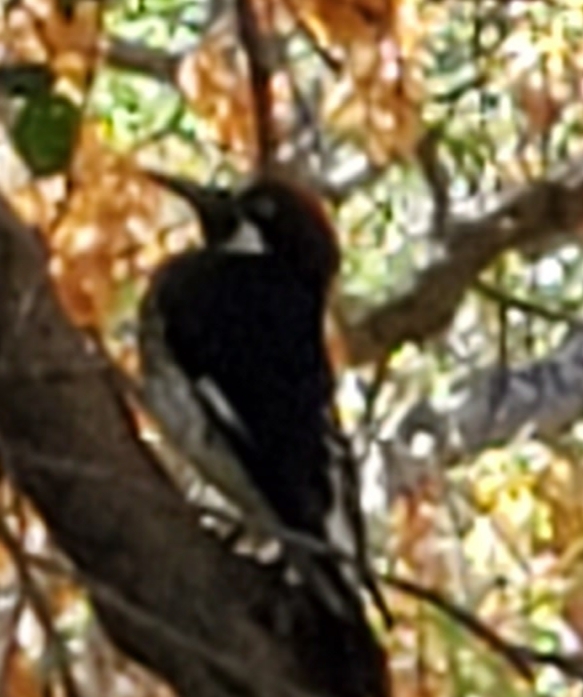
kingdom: Animalia
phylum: Chordata
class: Aves
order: Piciformes
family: Picidae
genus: Melanerpes
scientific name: Melanerpes formicivorus
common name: Acorn woodpecker
